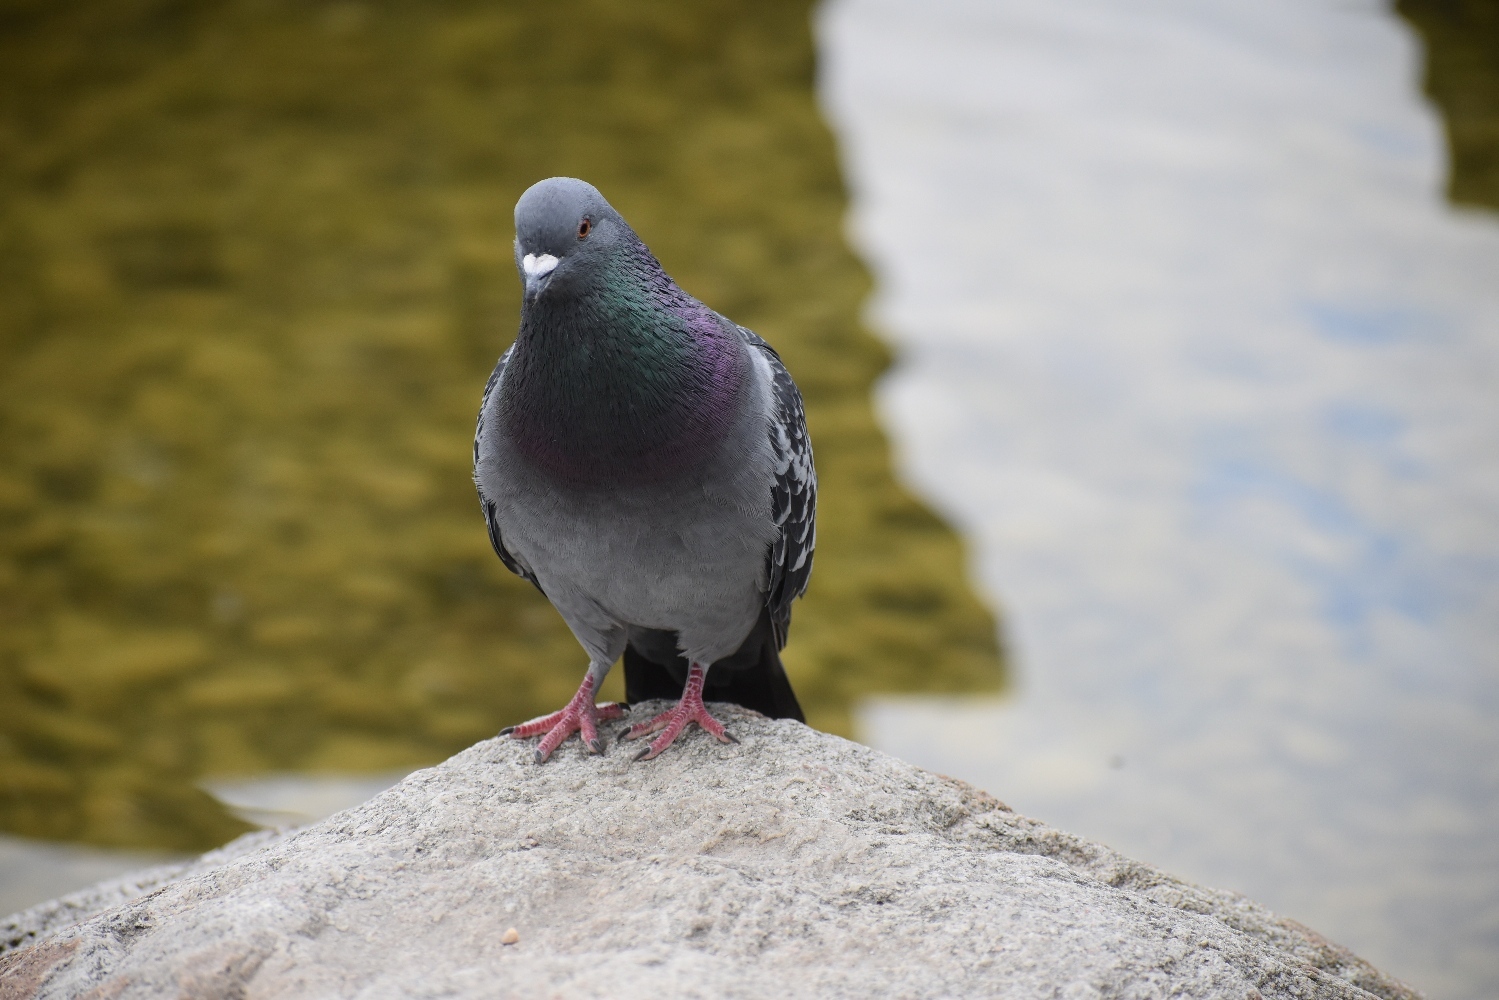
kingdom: Animalia
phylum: Chordata
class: Aves
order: Columbiformes
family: Columbidae
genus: Columba
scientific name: Columba livia
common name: Rock pigeon
